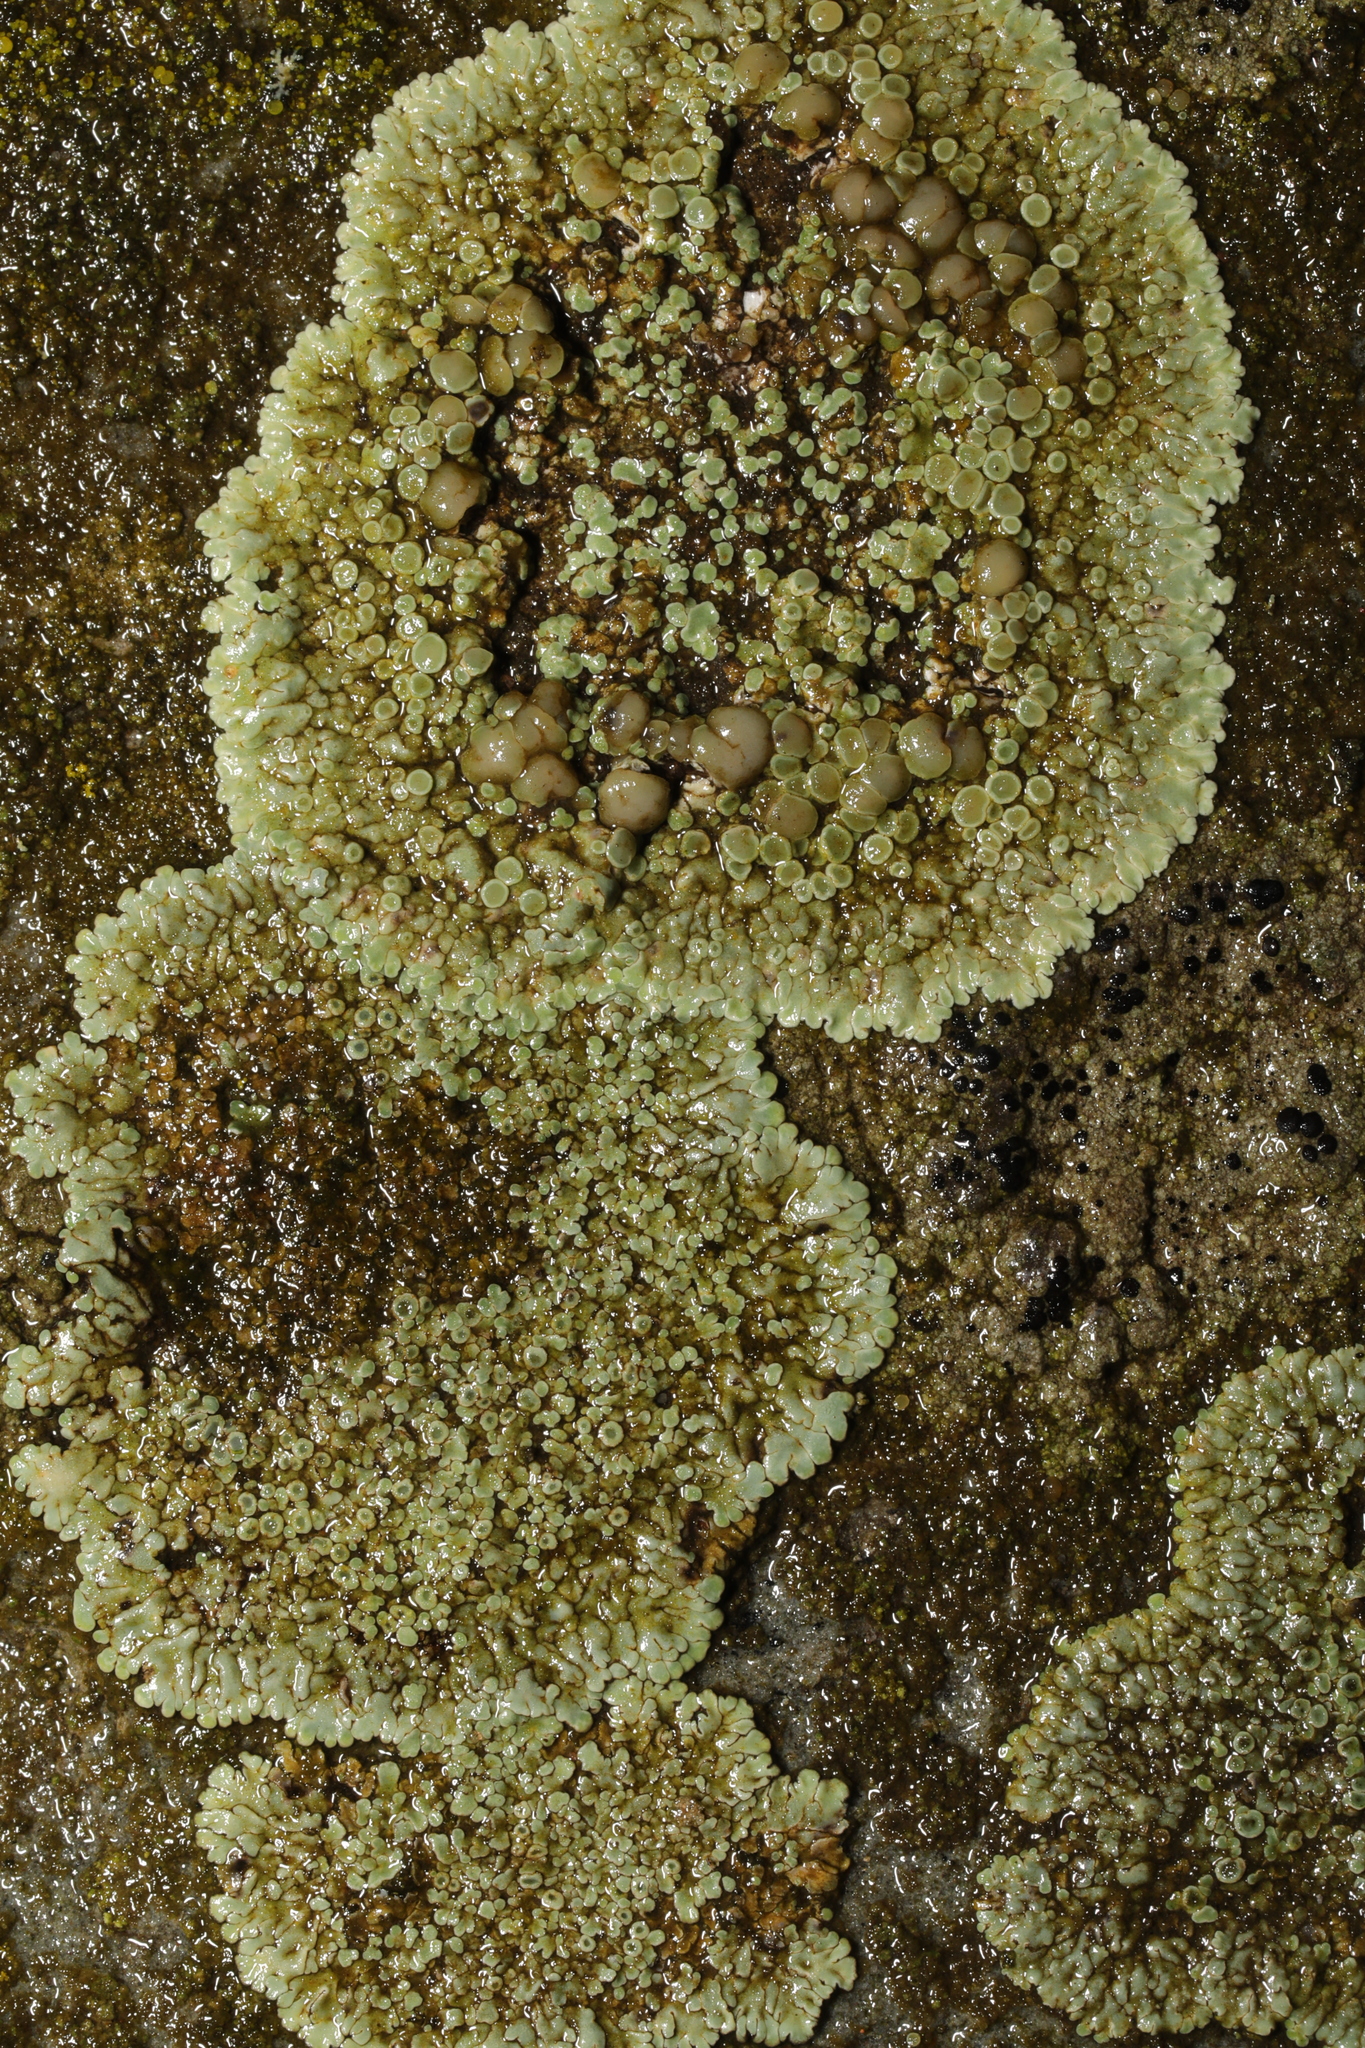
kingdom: Fungi
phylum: Ascomycota
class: Lecanoromycetes
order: Lecanorales
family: Lecanoraceae
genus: Protoparmeliopsis
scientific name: Protoparmeliopsis muralis
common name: Stonewall rim lichen
